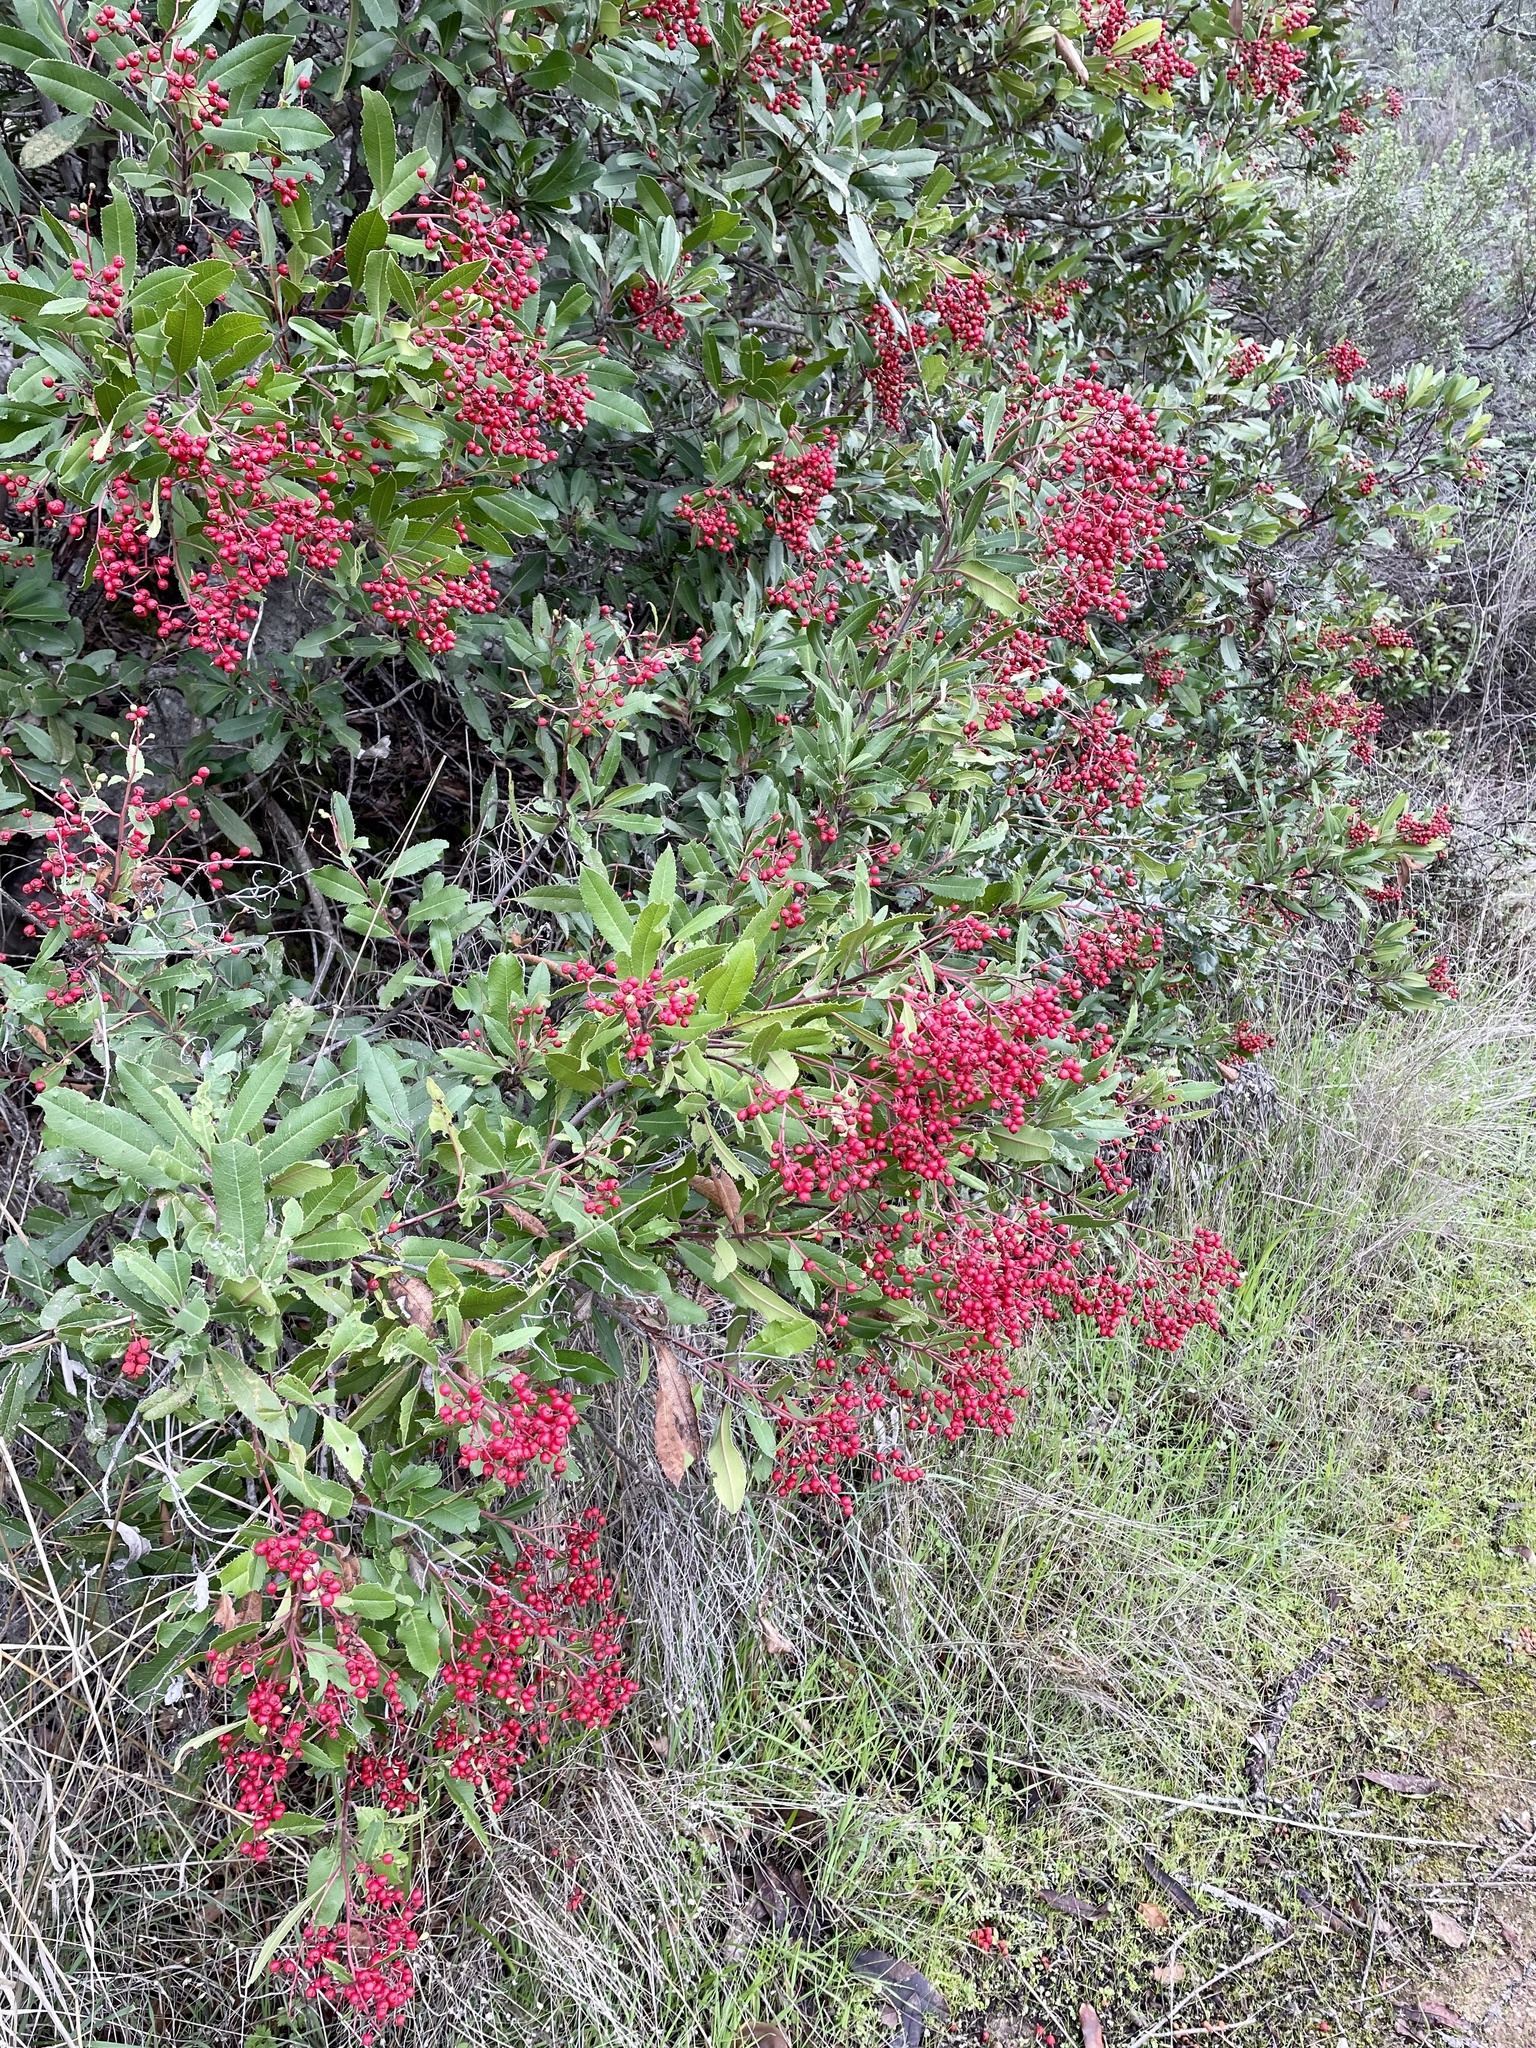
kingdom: Plantae
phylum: Tracheophyta
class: Magnoliopsida
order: Rosales
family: Rosaceae
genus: Heteromeles
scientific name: Heteromeles arbutifolia
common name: California-holly
